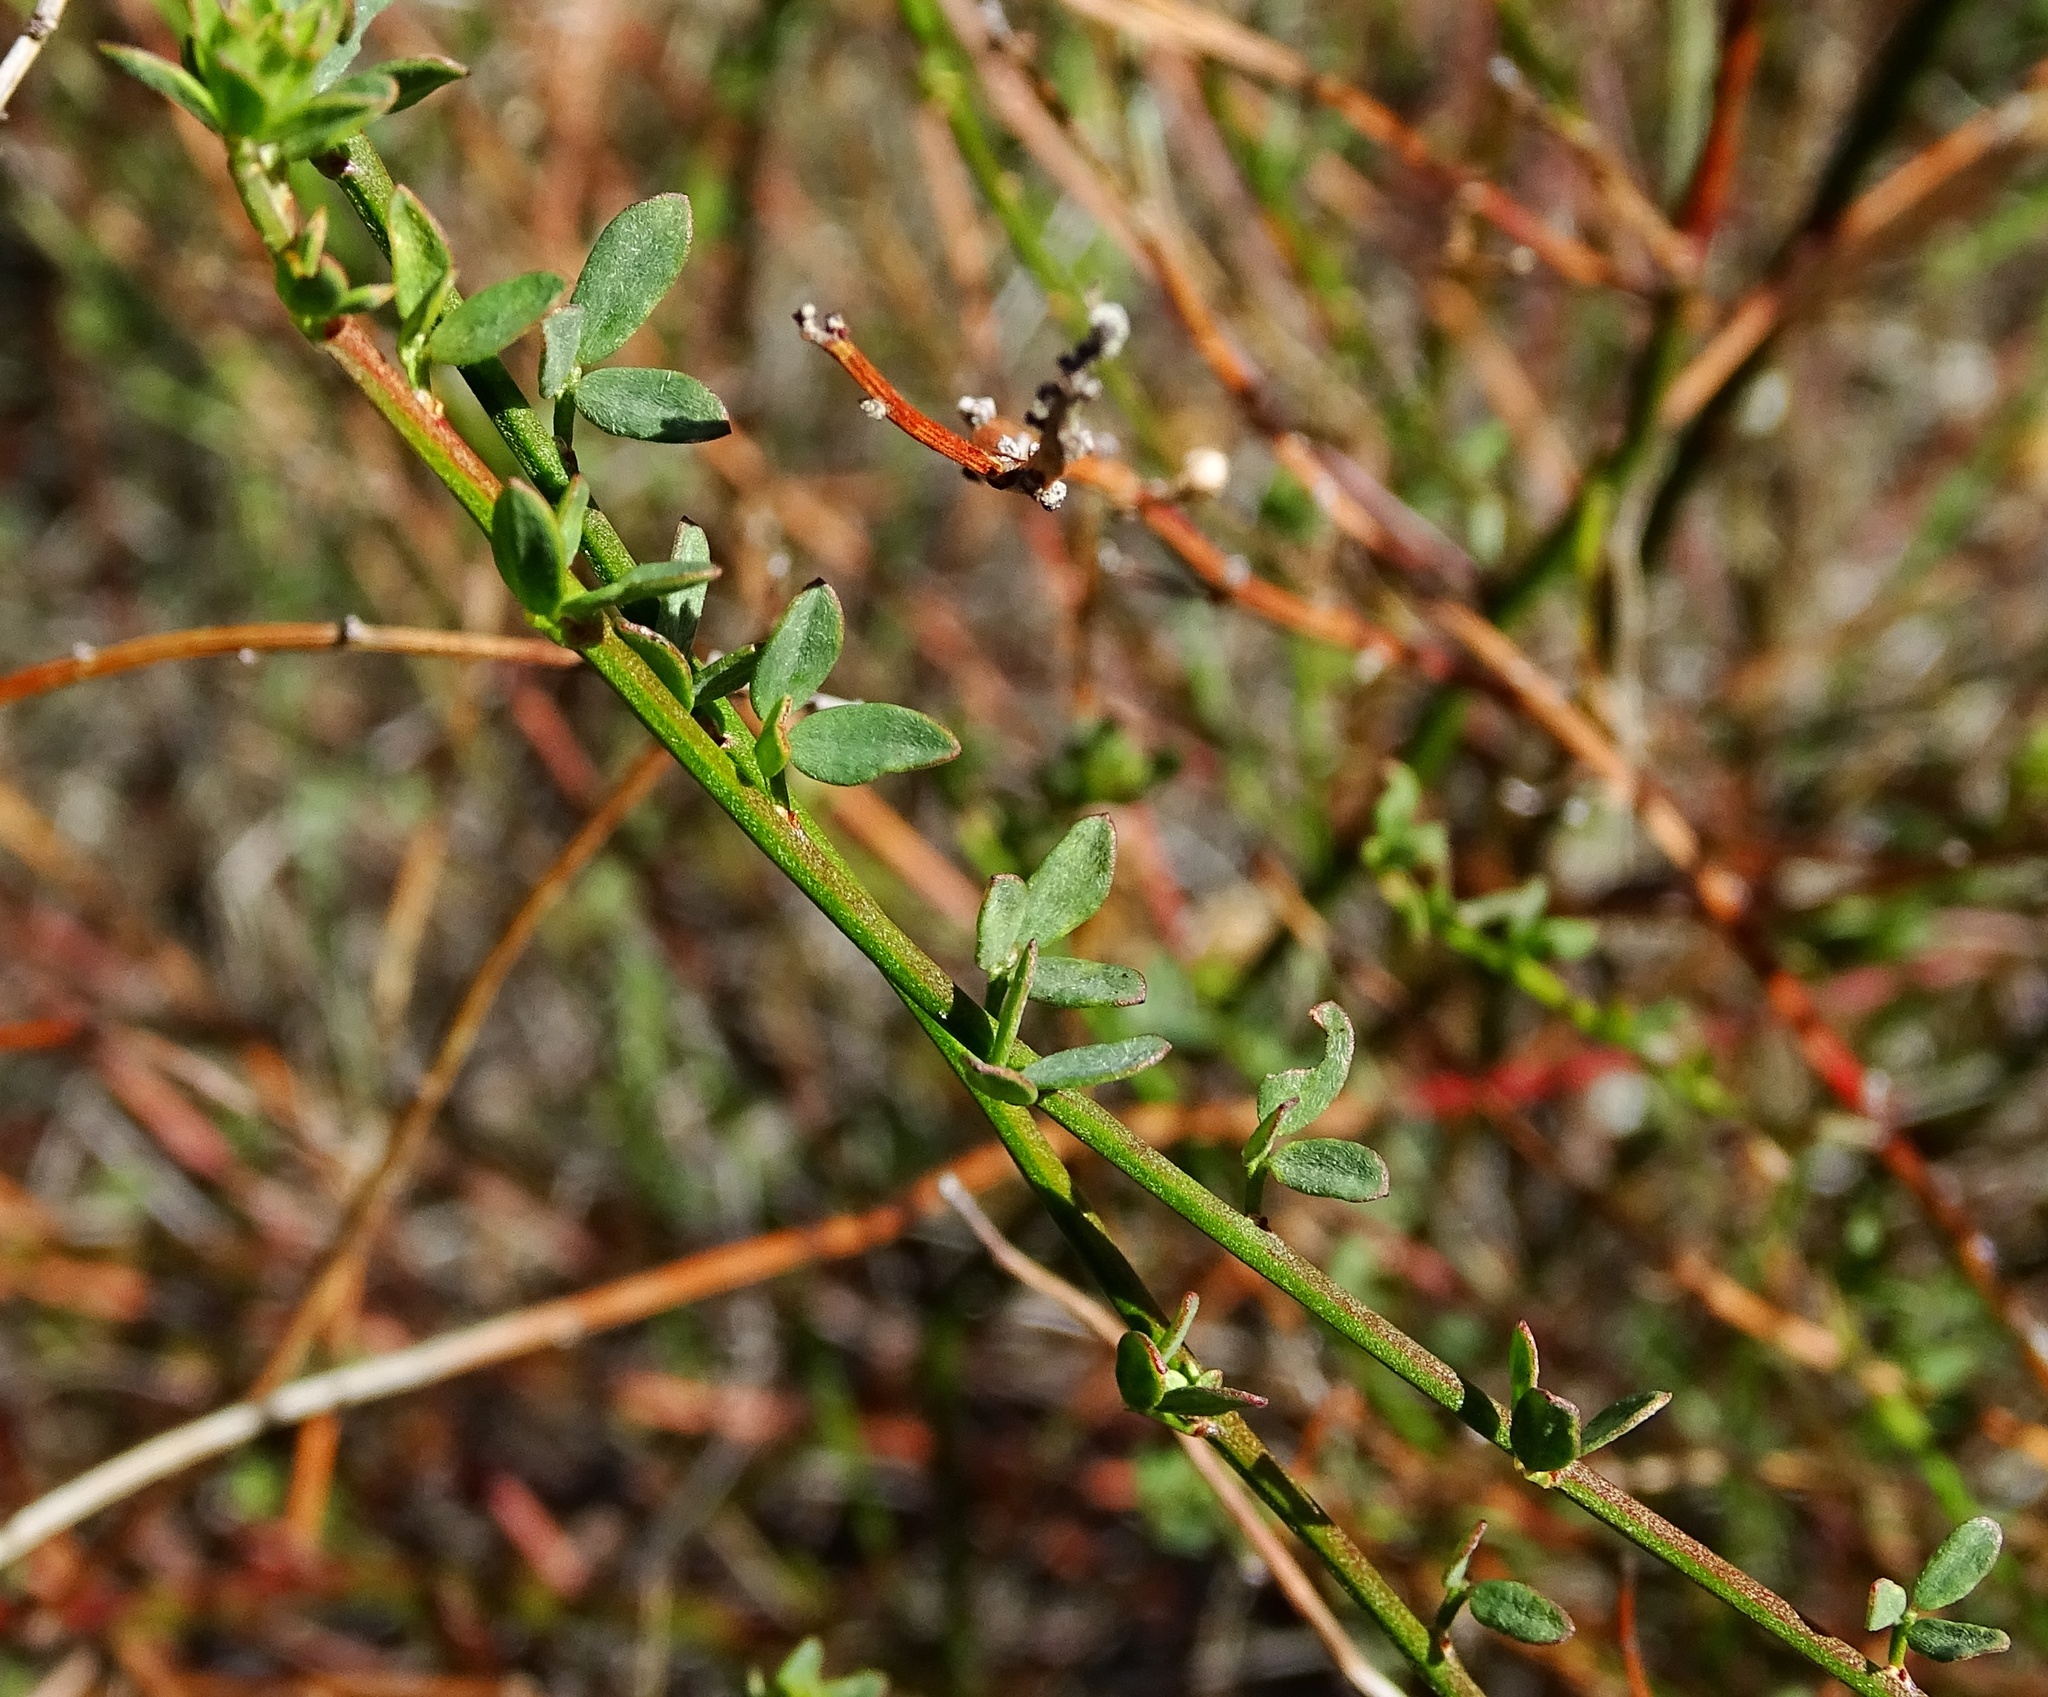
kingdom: Plantae
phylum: Tracheophyta
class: Magnoliopsida
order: Fabales
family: Fabaceae
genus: Acmispon
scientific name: Acmispon glaber
